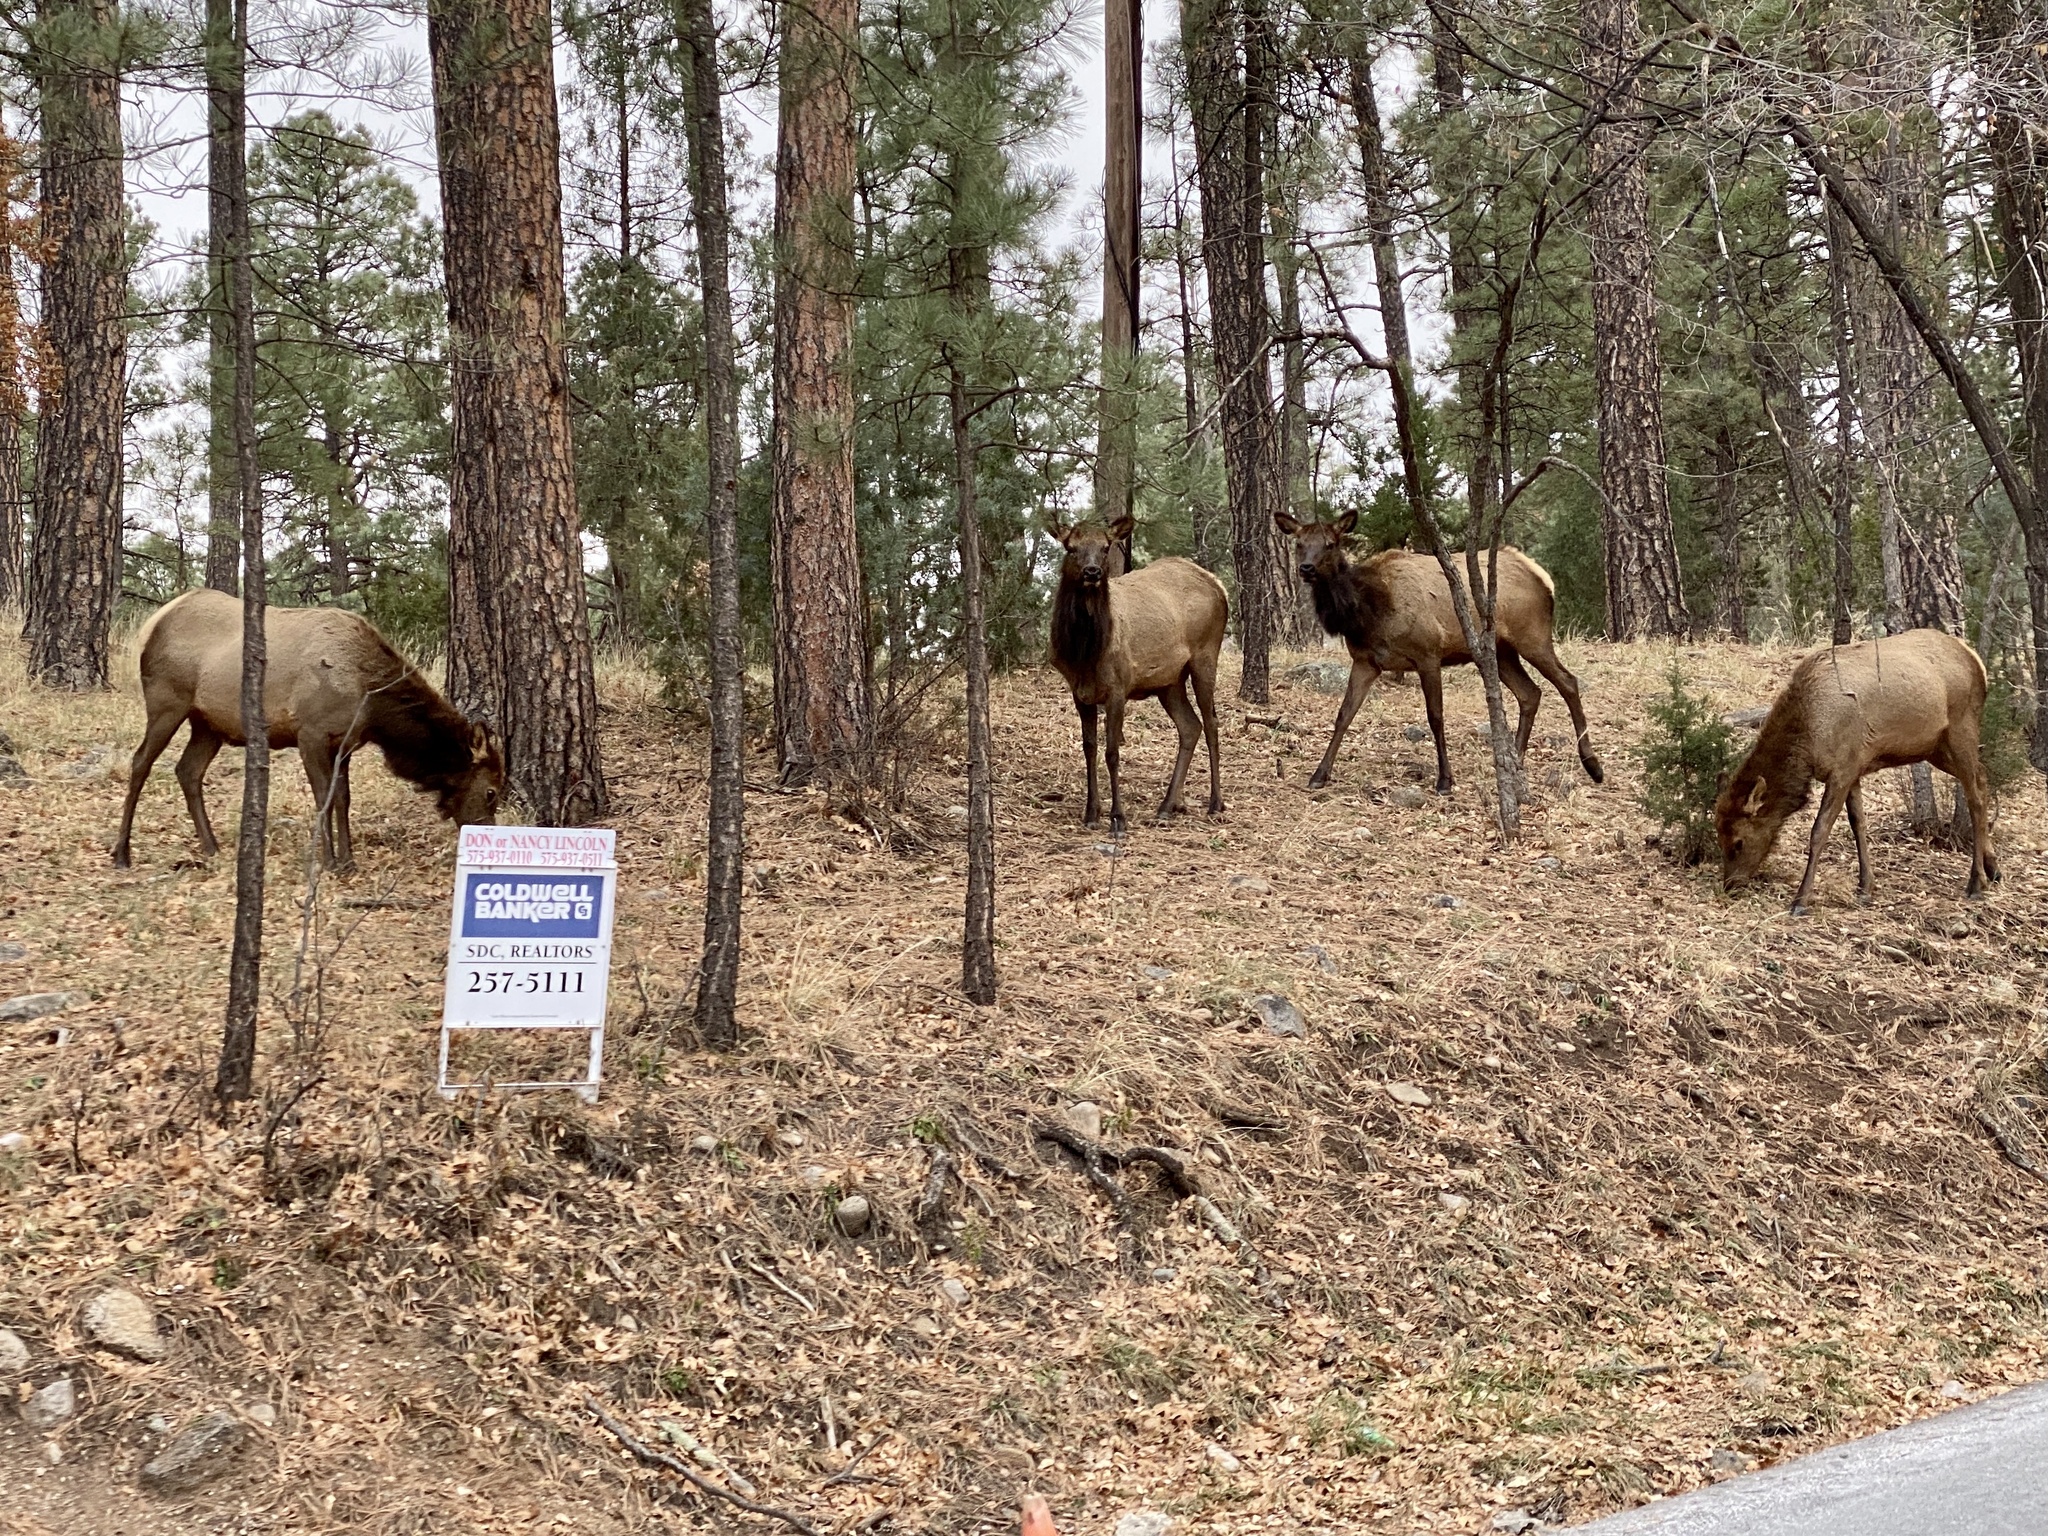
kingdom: Animalia
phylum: Chordata
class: Mammalia
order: Artiodactyla
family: Cervidae
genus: Cervus
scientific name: Cervus elaphus
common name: Red deer
